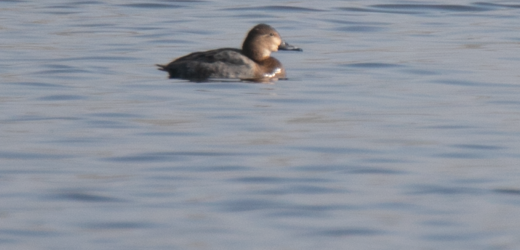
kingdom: Animalia
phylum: Chordata
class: Aves
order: Anseriformes
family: Anatidae
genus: Aythya
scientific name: Aythya ferina
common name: Common pochard
